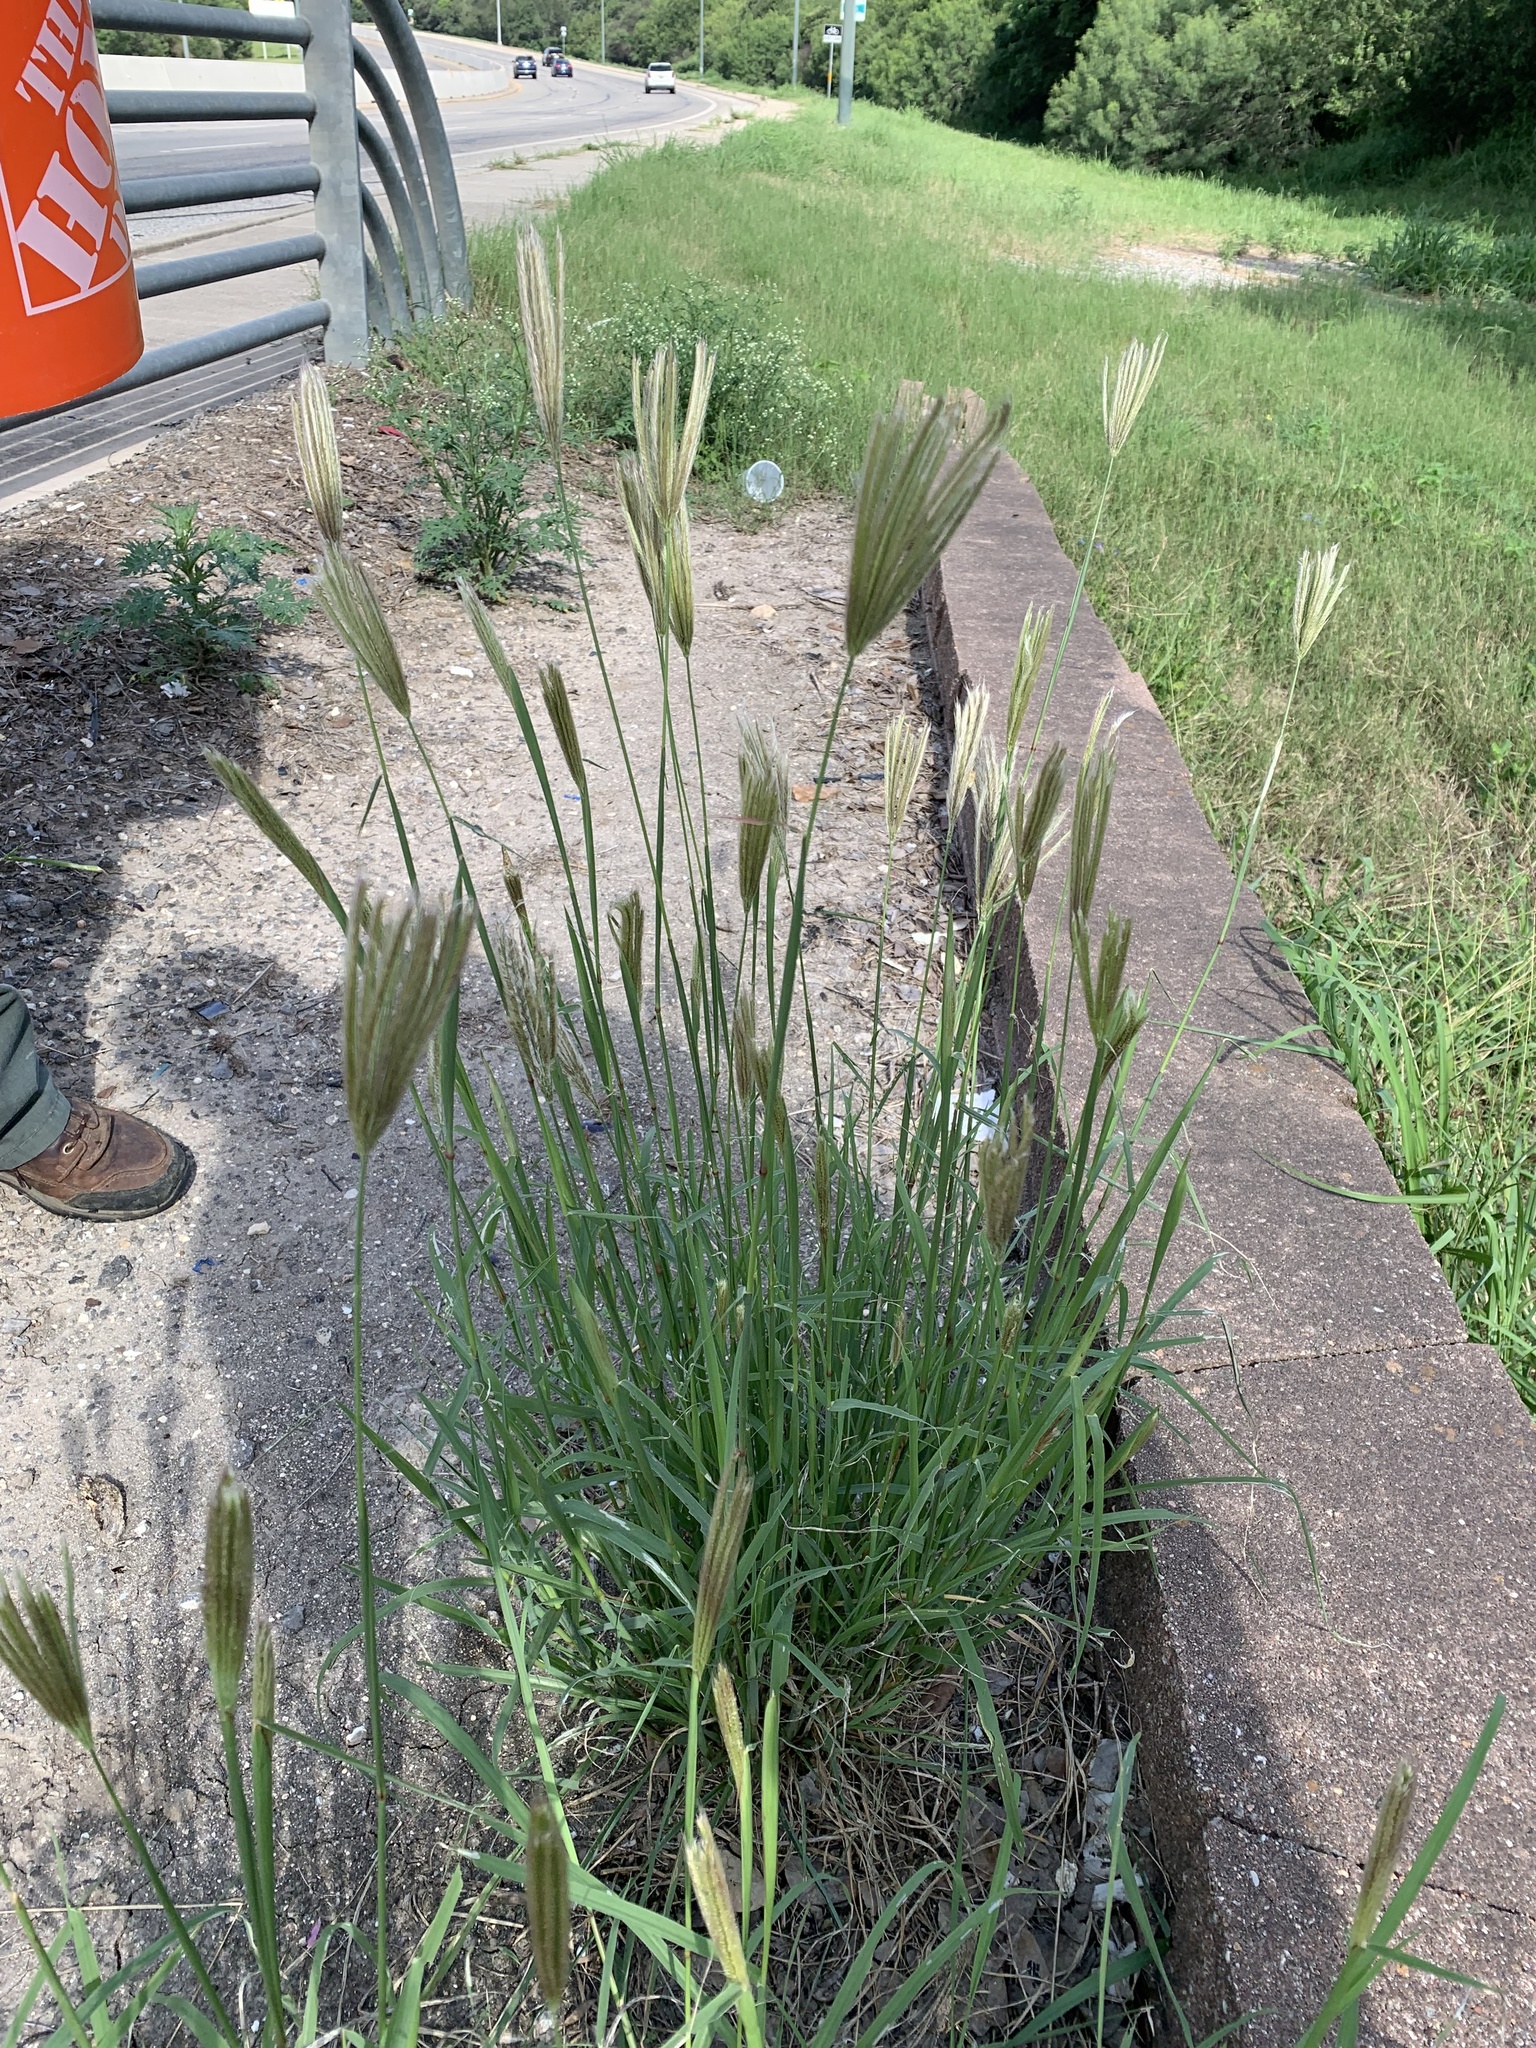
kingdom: Plantae
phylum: Tracheophyta
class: Liliopsida
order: Poales
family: Poaceae
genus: Chloris
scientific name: Chloris virgata
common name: Feathery rhodes-grass
